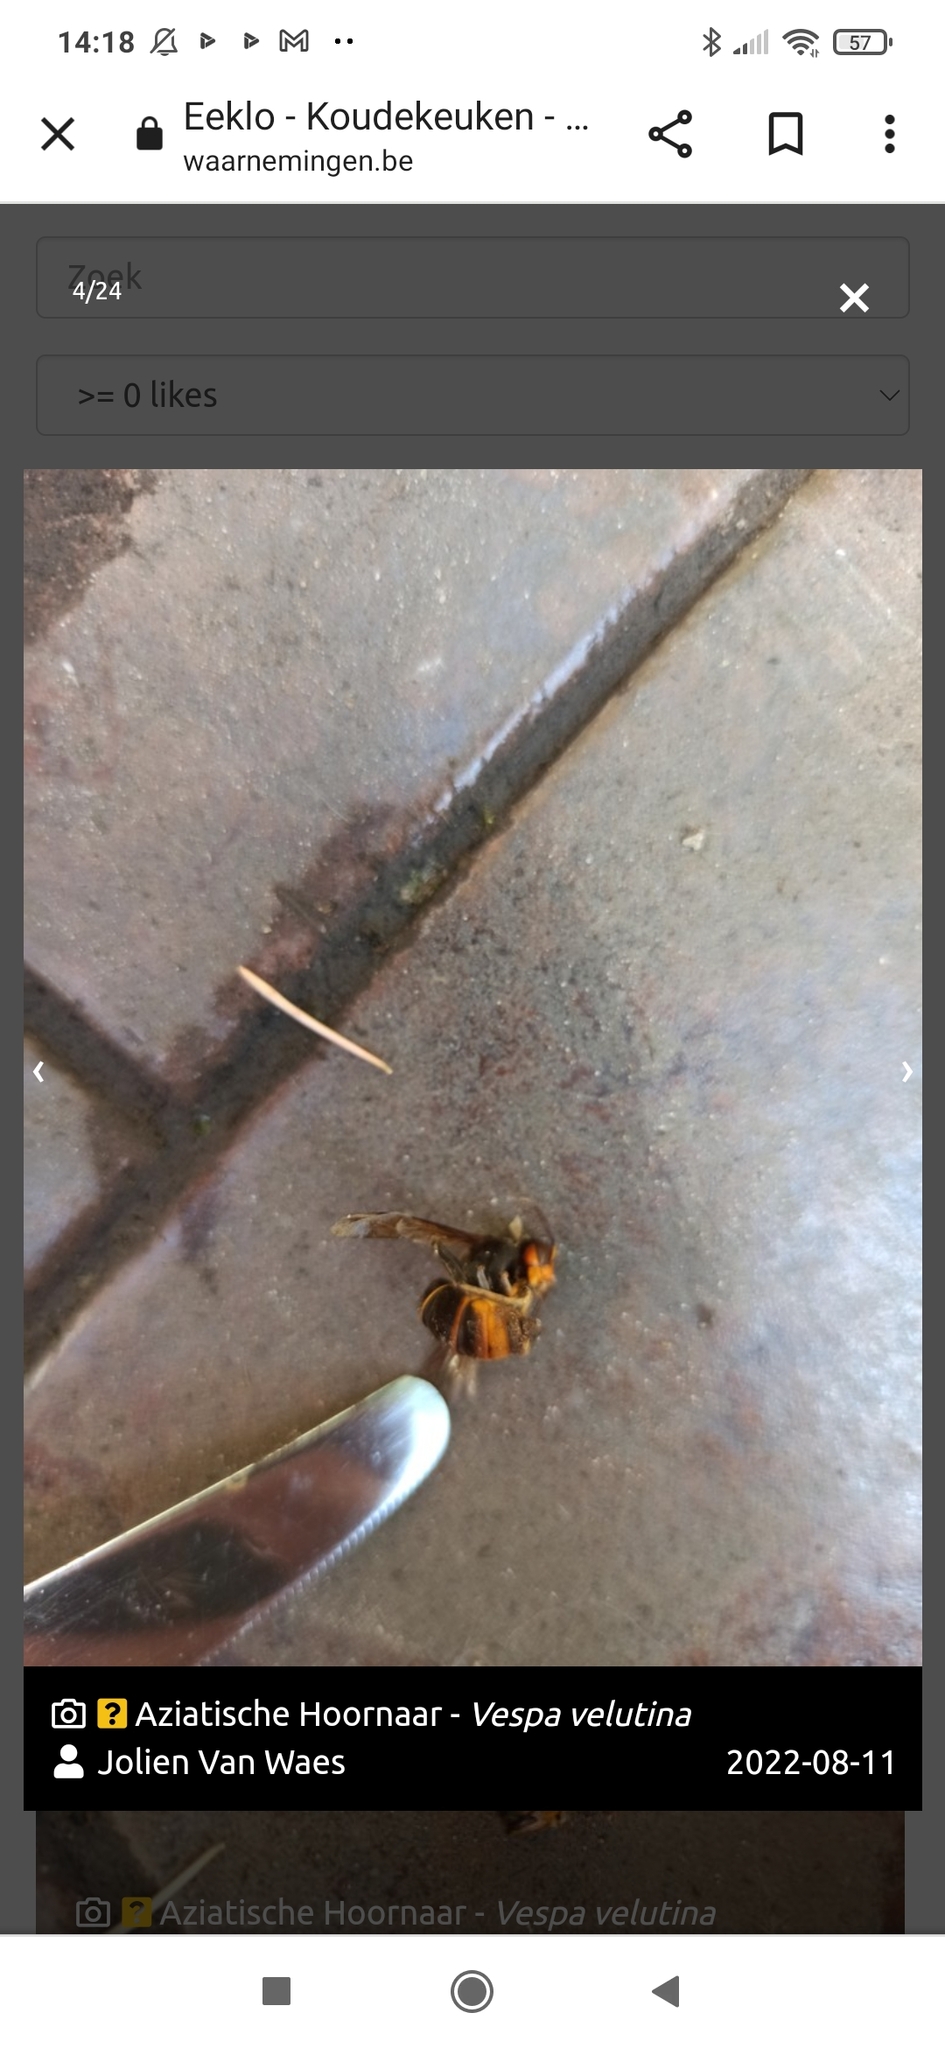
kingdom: Animalia
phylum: Arthropoda
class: Insecta
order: Hymenoptera
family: Vespidae
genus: Vespa
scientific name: Vespa velutina
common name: Asian hornet
